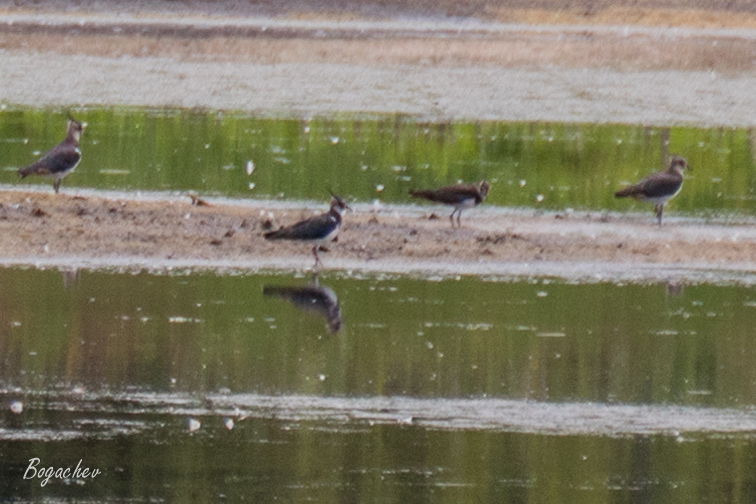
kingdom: Animalia
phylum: Chordata
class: Aves
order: Charadriiformes
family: Charadriidae
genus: Vanellus
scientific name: Vanellus vanellus
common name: Northern lapwing
